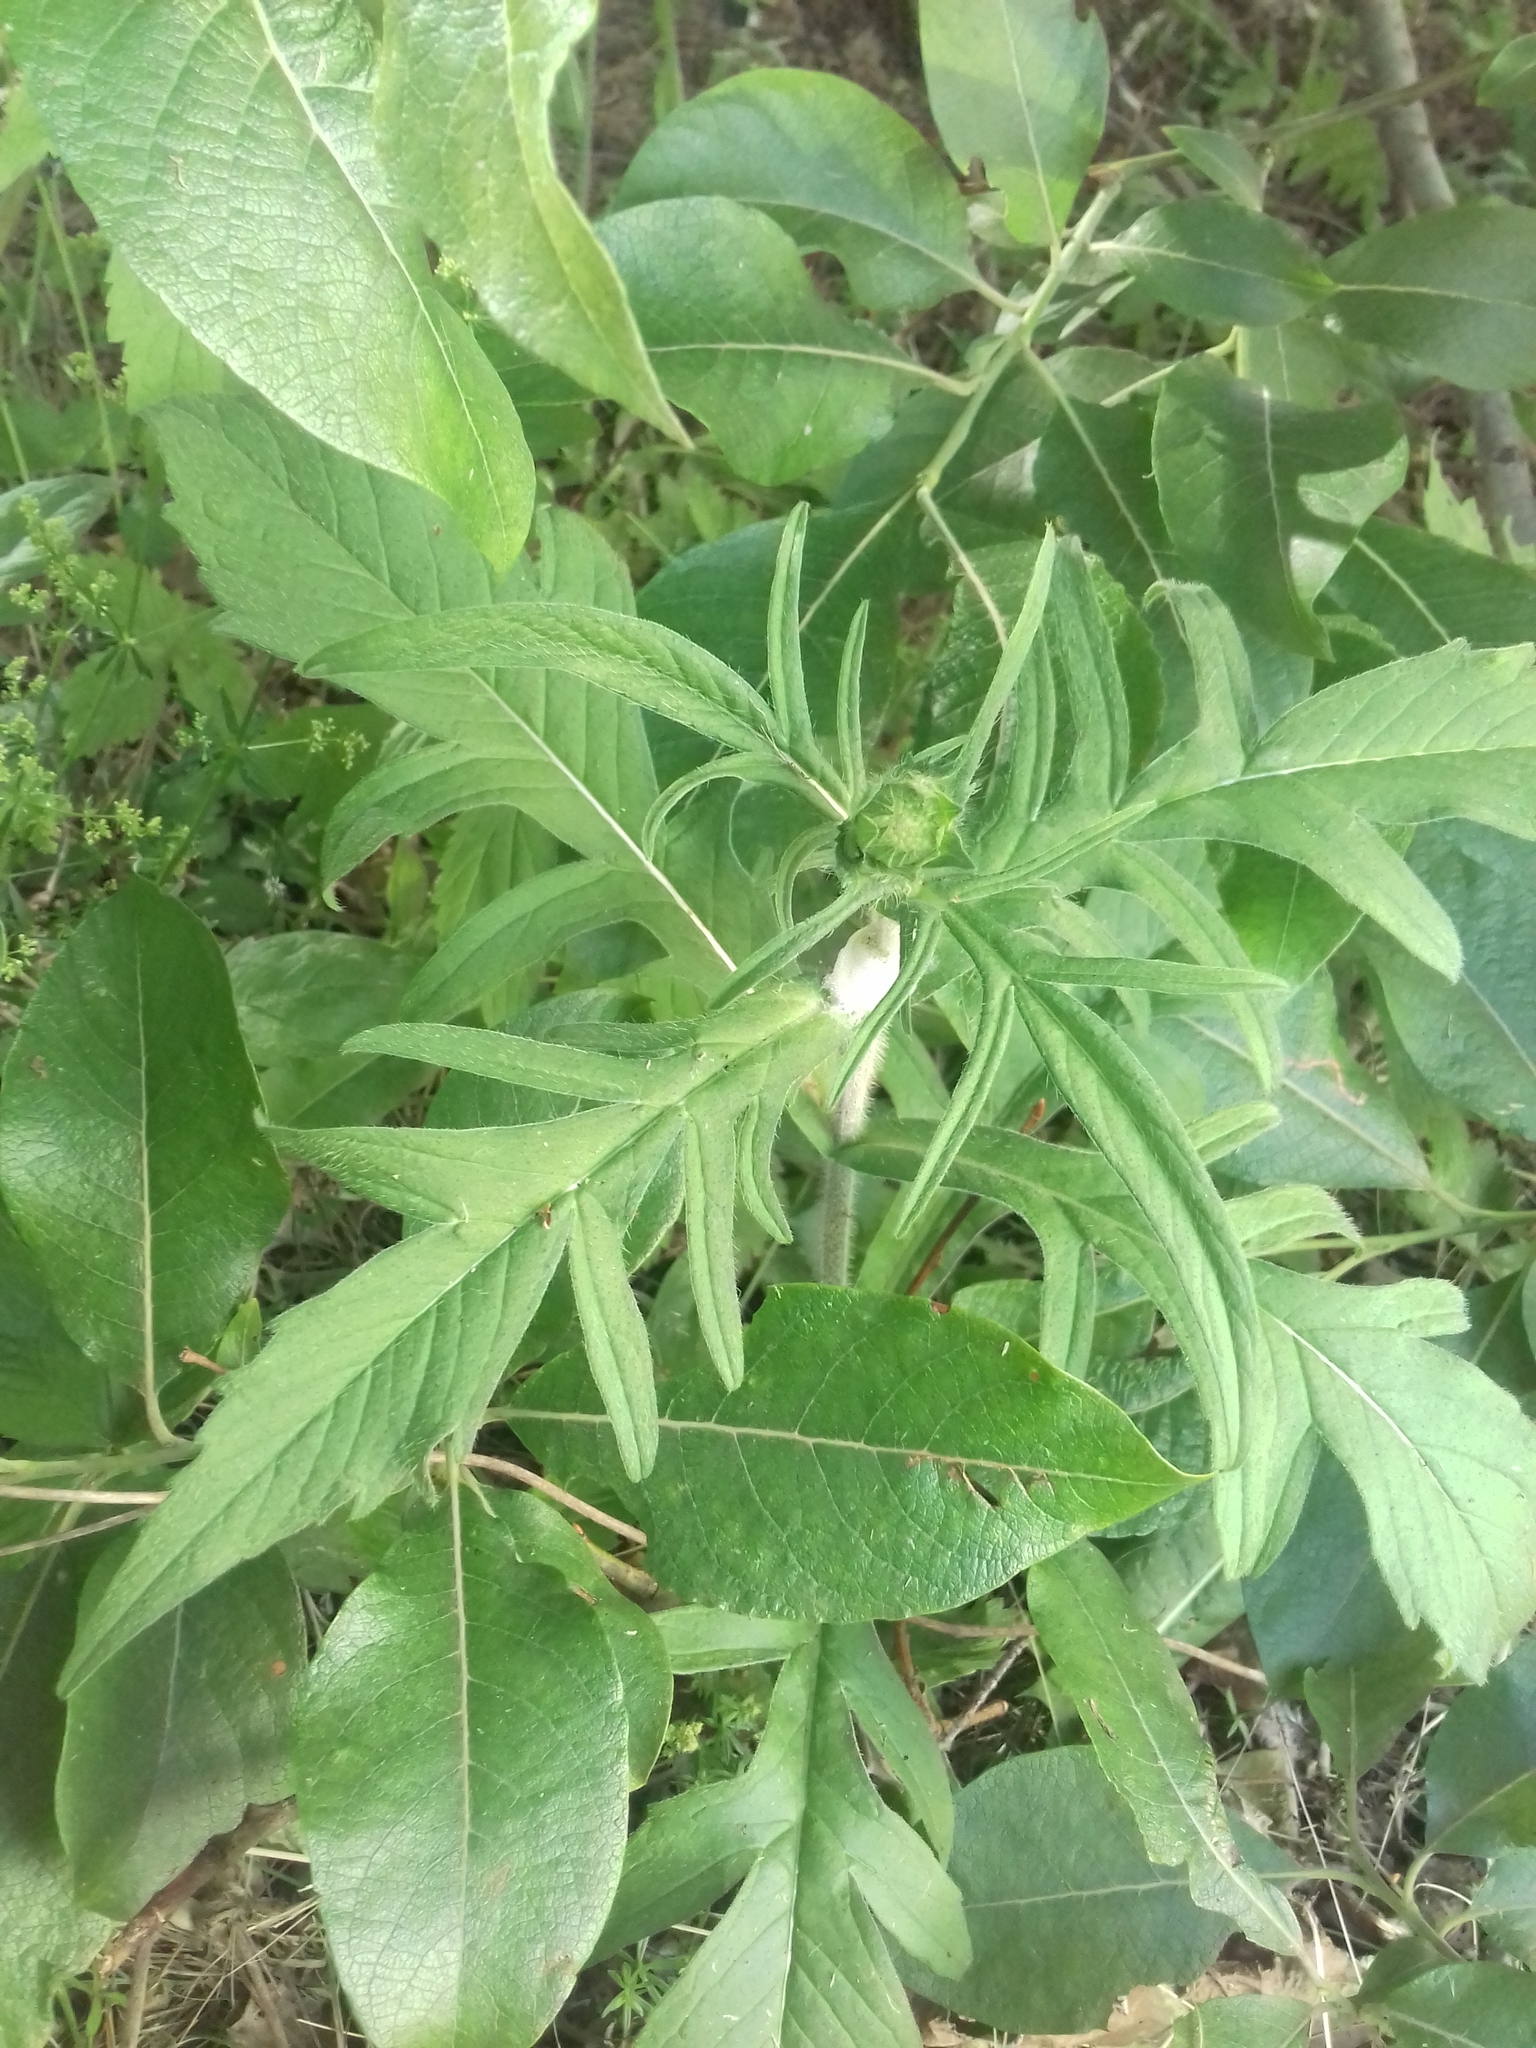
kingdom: Plantae
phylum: Tracheophyta
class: Magnoliopsida
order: Dipsacales
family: Caprifoliaceae
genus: Knautia
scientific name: Knautia arvensis
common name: Field scabiosa
